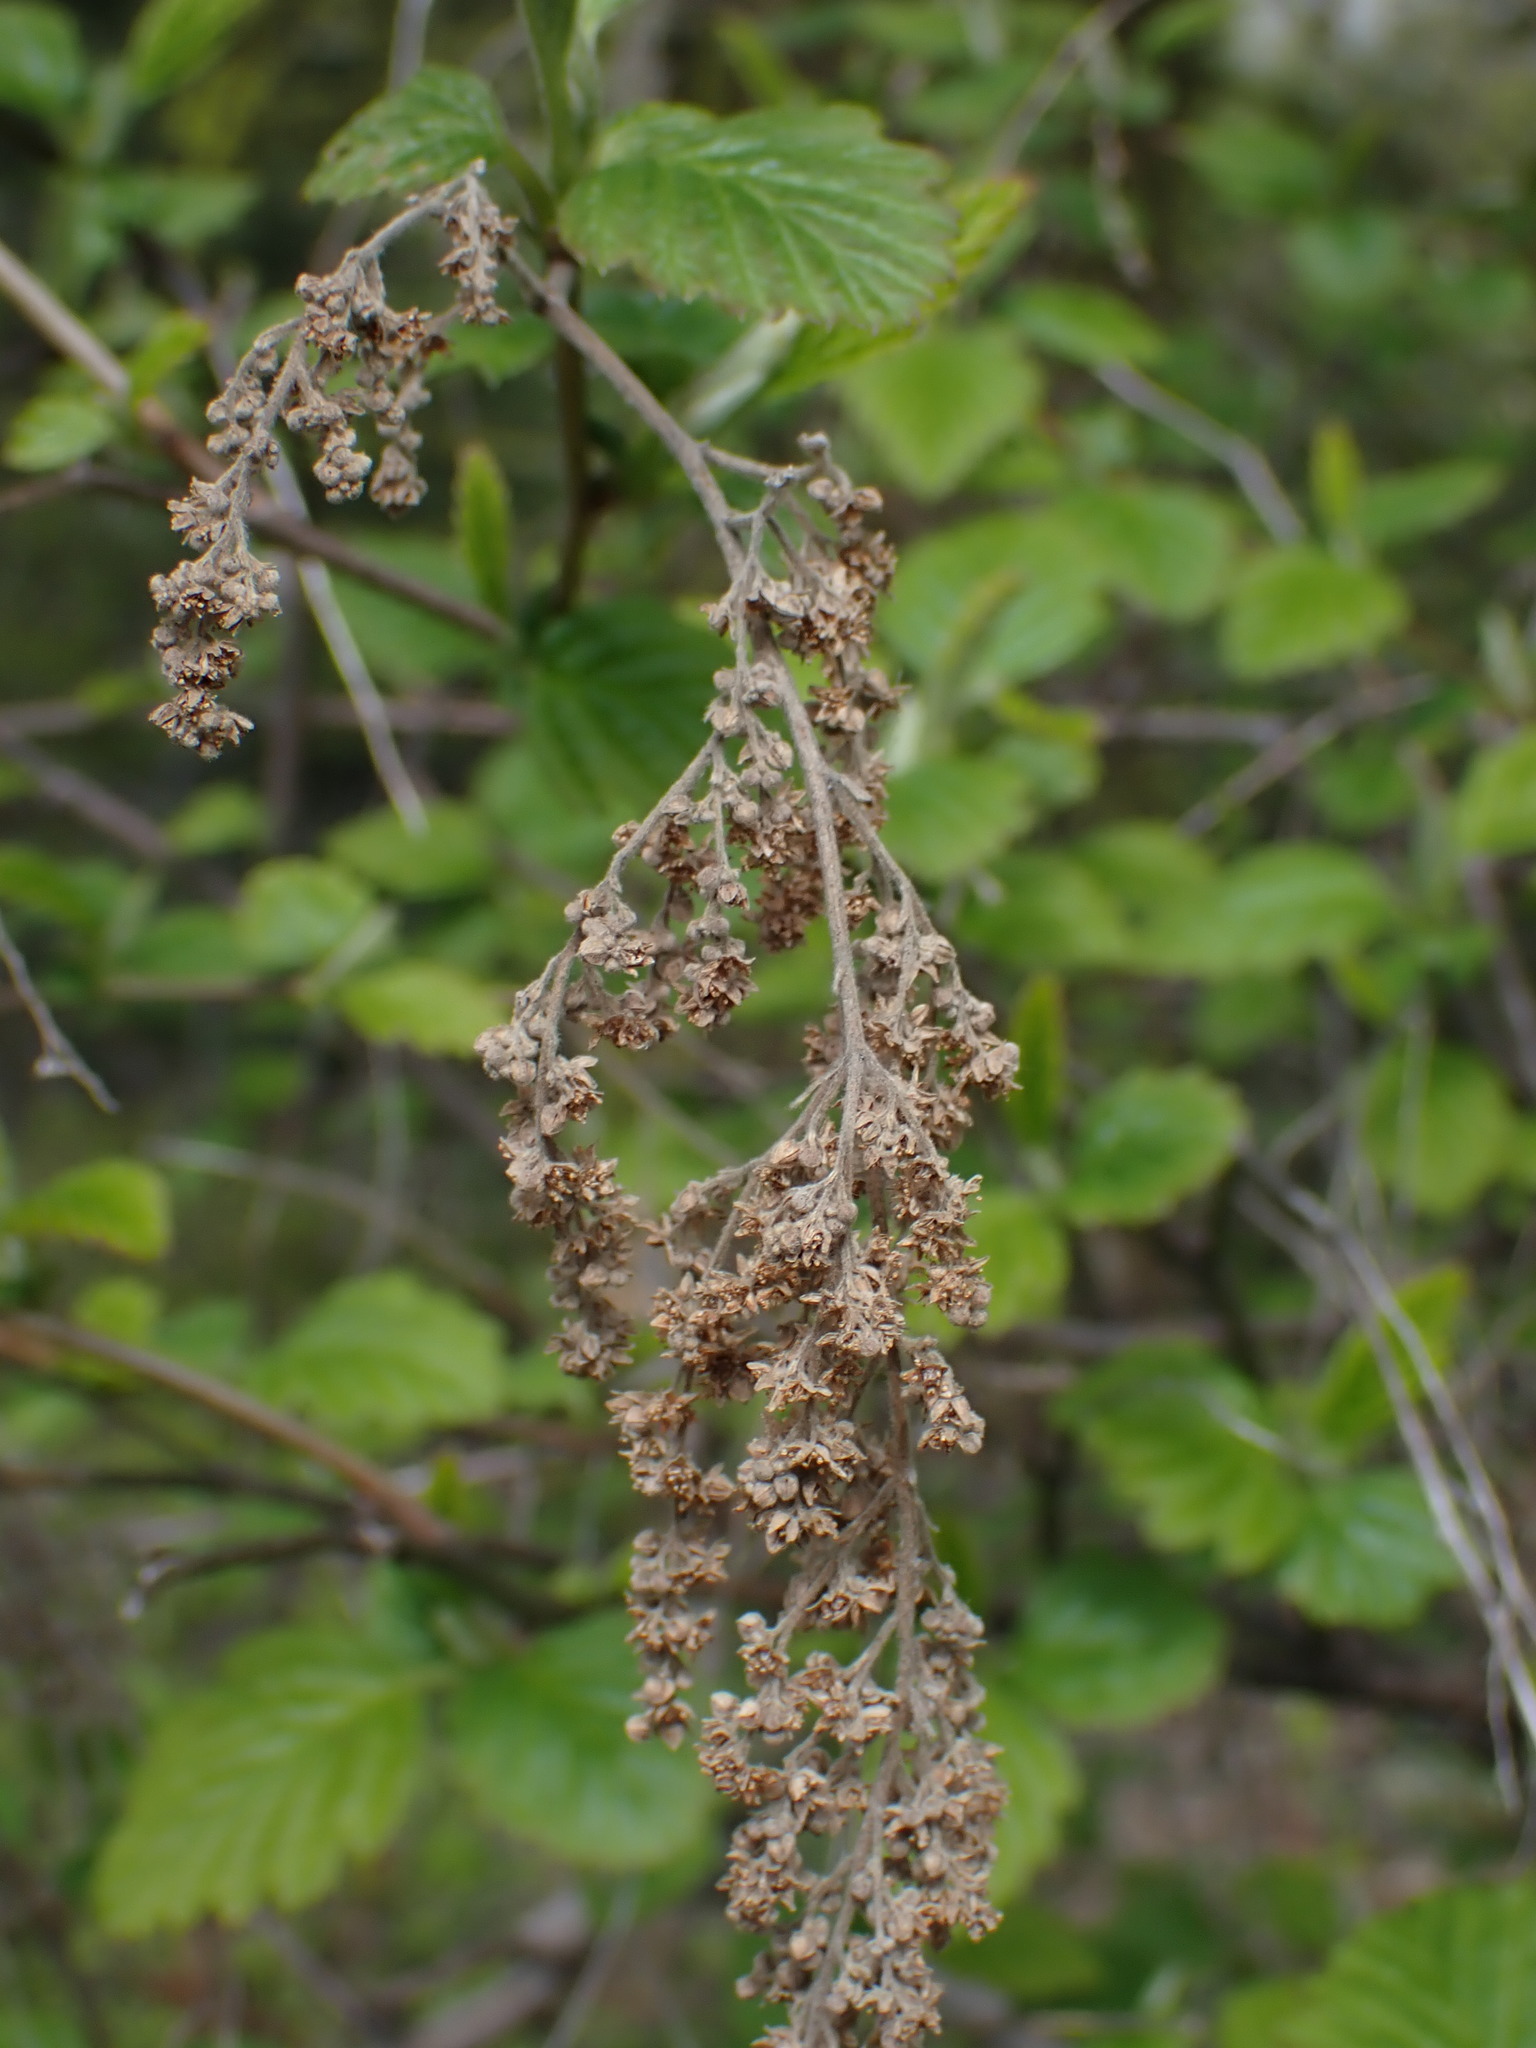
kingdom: Plantae
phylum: Tracheophyta
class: Magnoliopsida
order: Rosales
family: Rosaceae
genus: Holodiscus
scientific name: Holodiscus discolor
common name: Oceanspray
